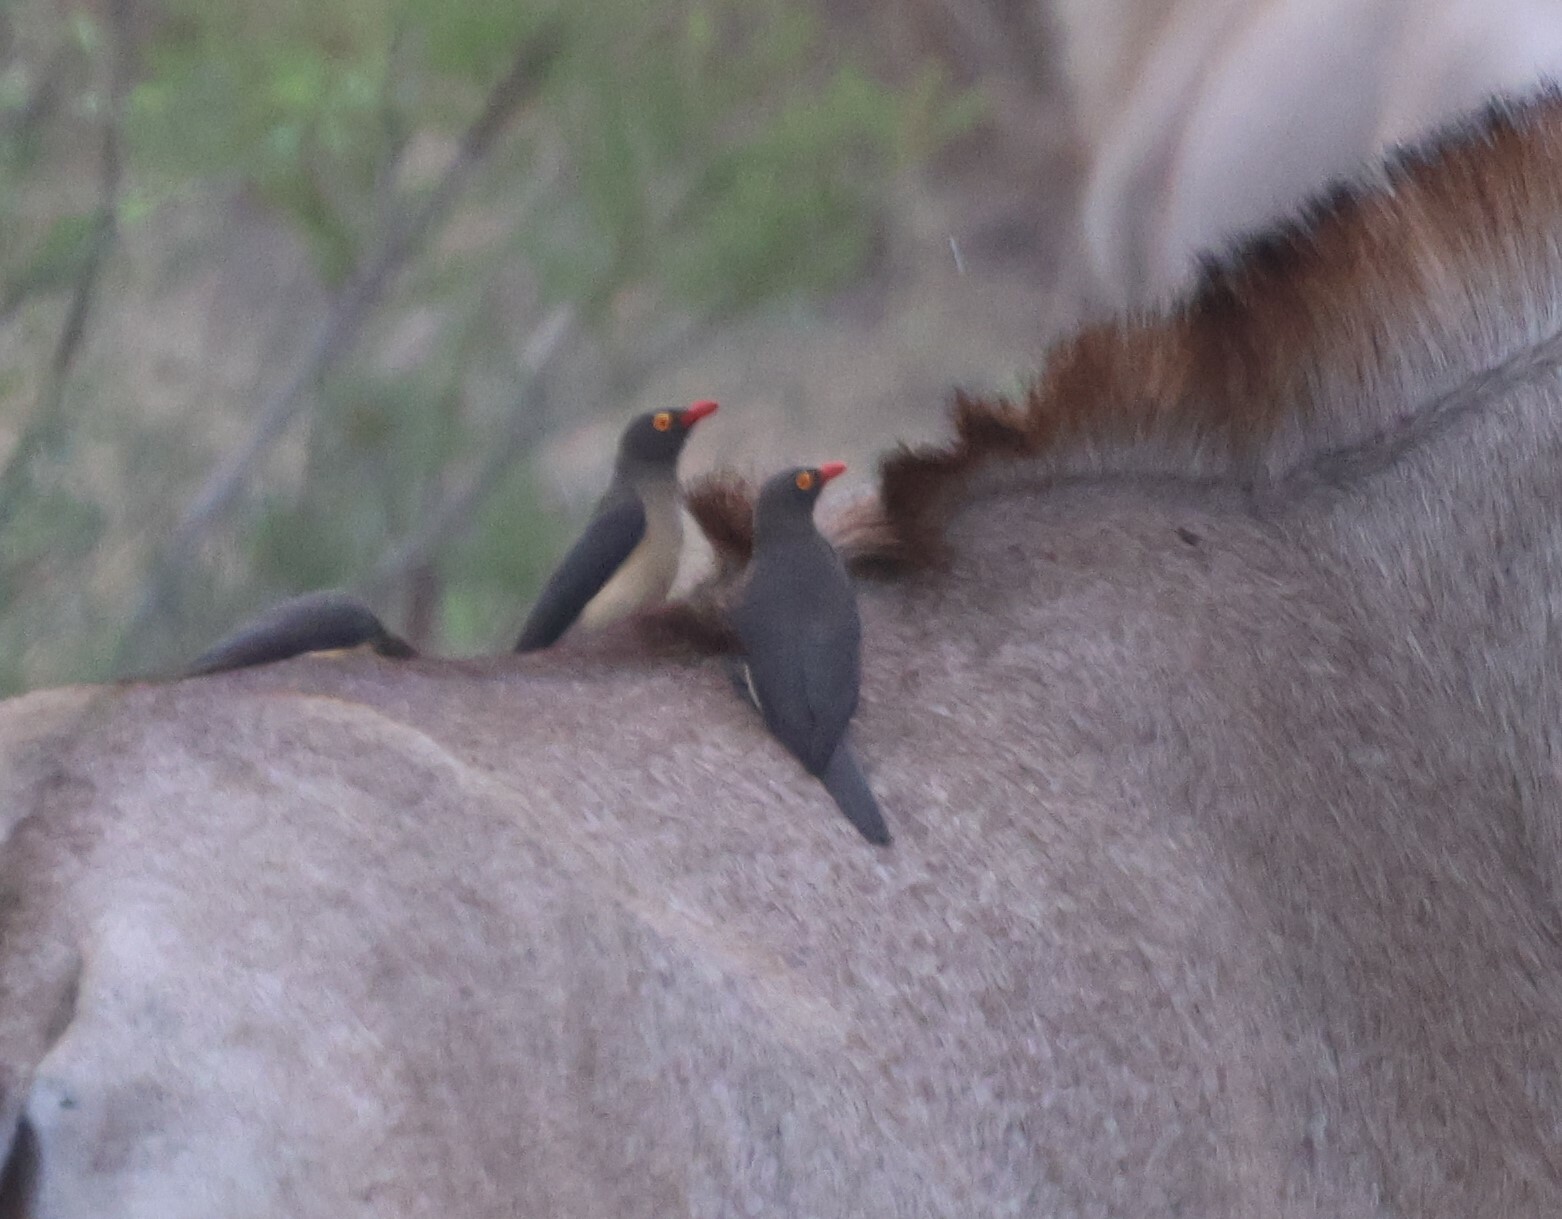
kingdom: Animalia
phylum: Chordata
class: Aves
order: Passeriformes
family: Buphagidae
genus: Buphagus
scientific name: Buphagus erythrorhynchus
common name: Red-billed oxpecker
